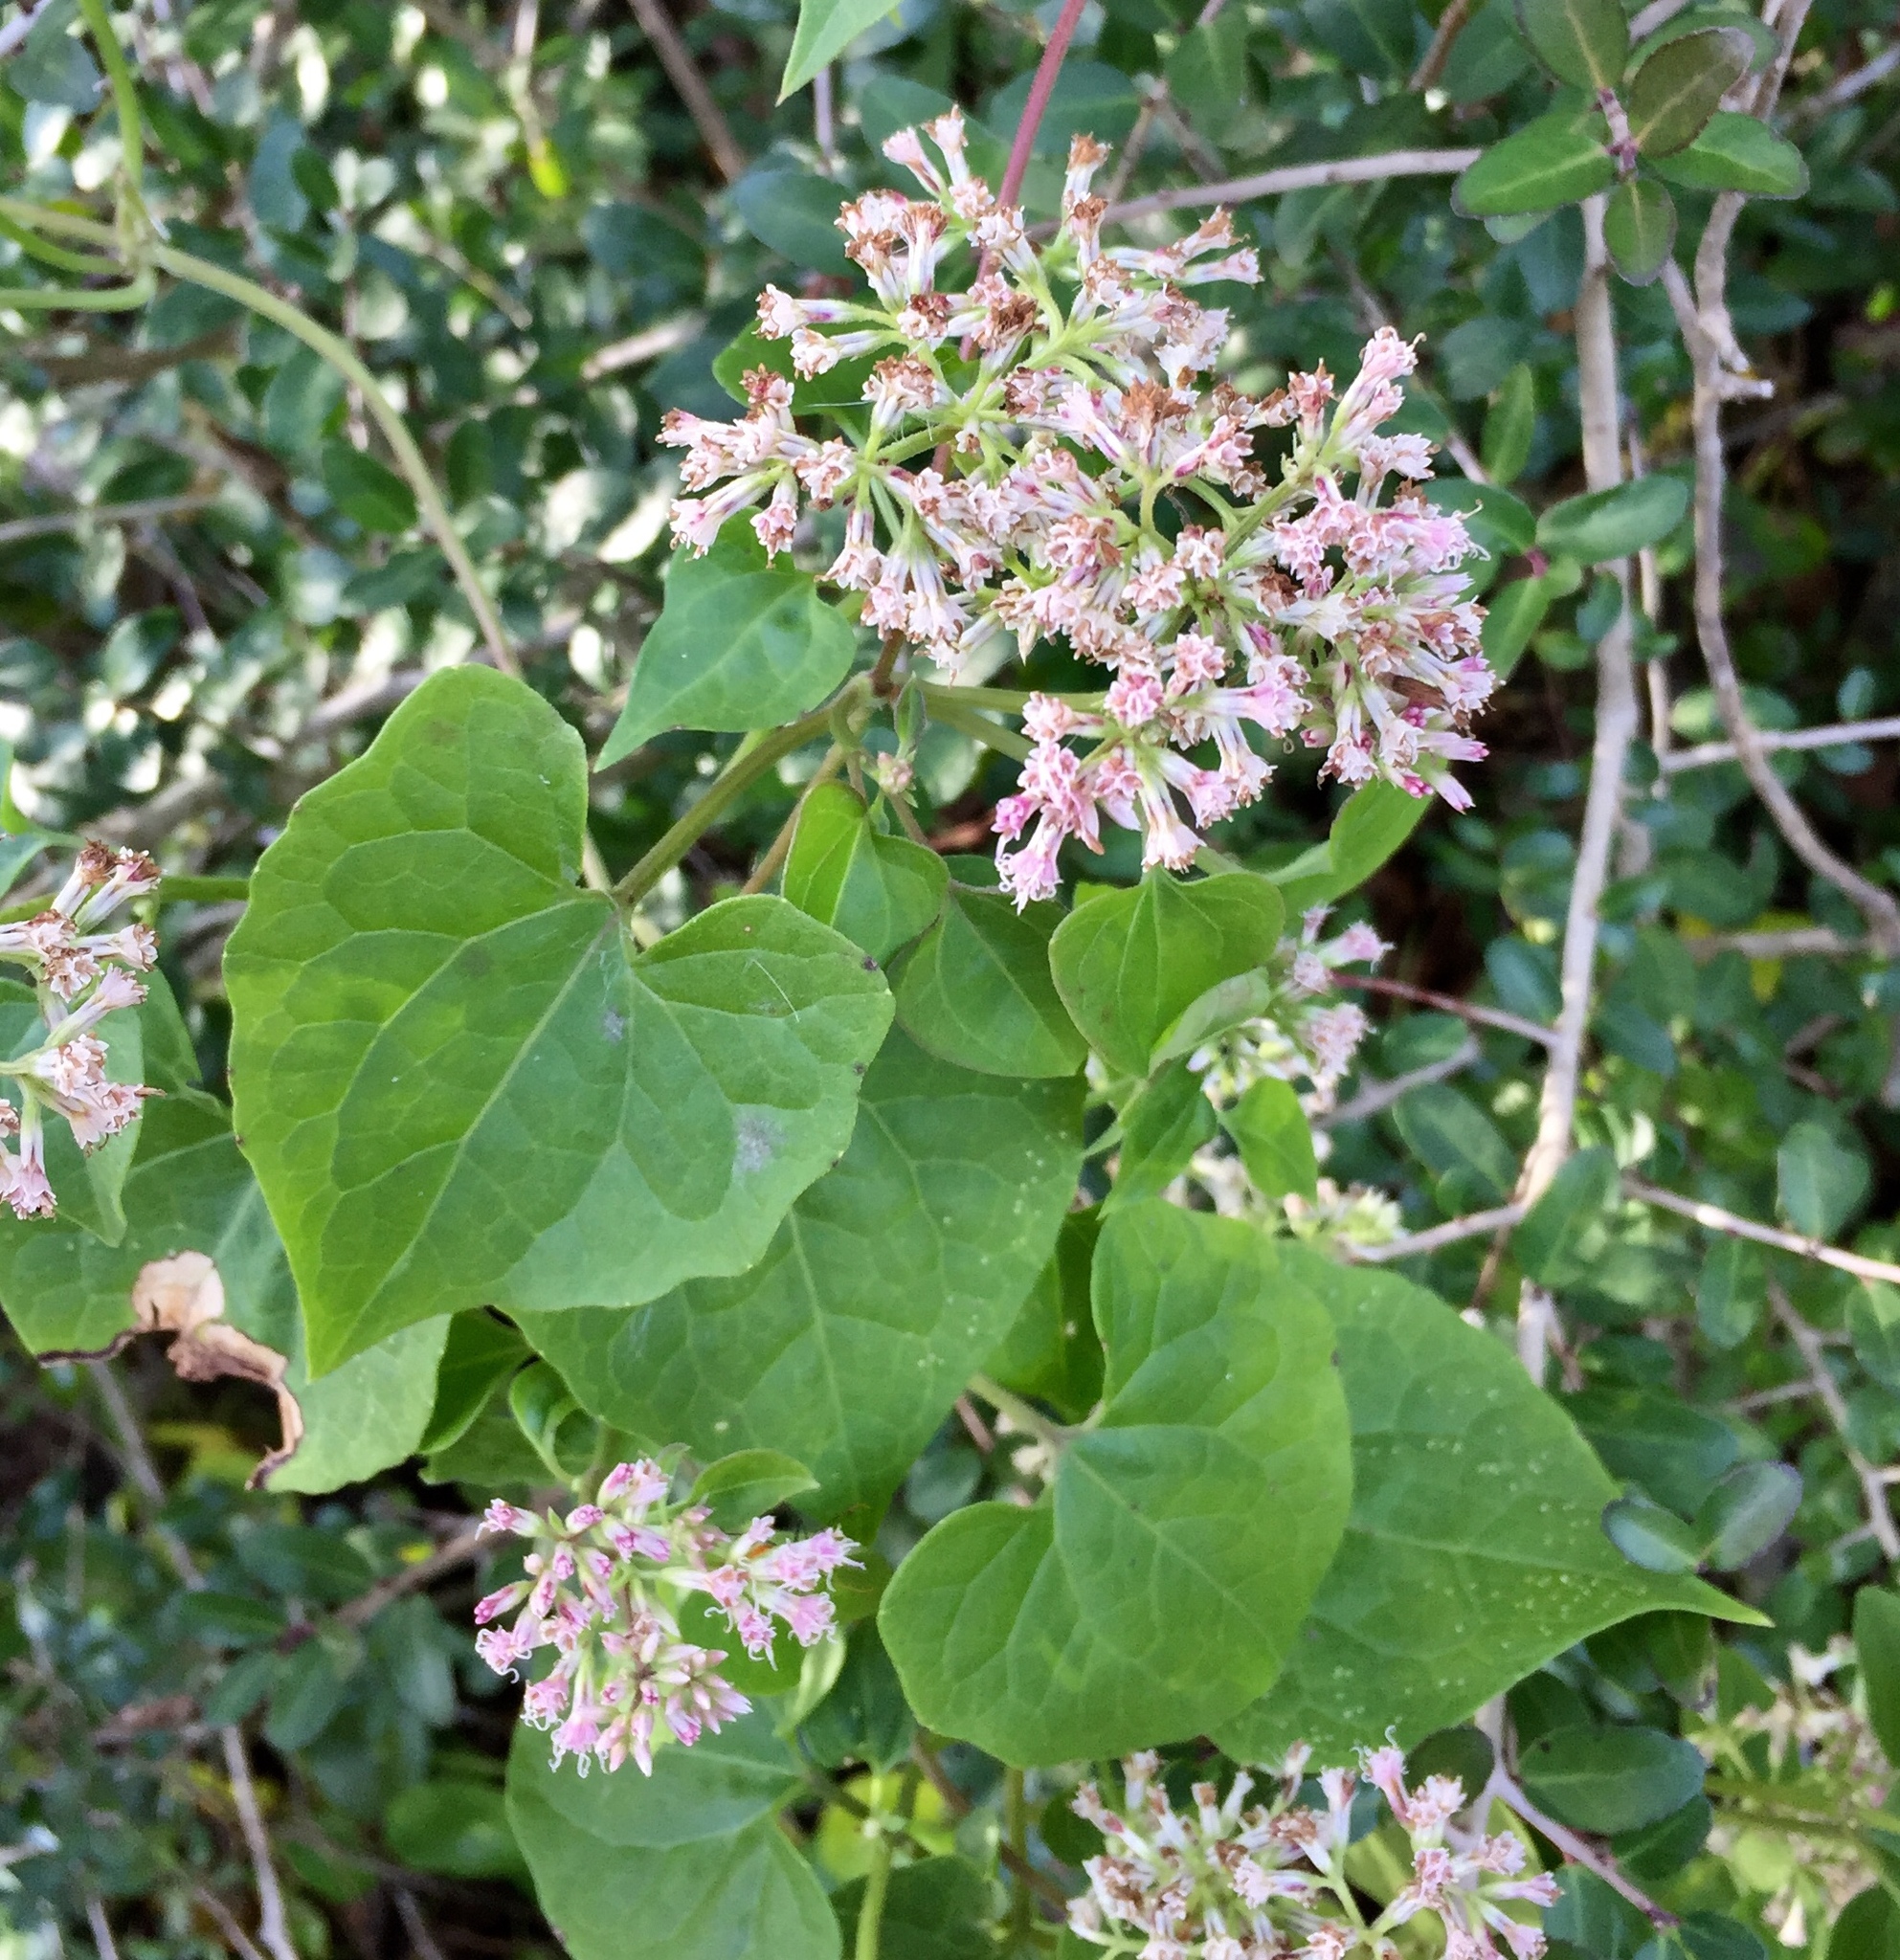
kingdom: Plantae
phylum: Tracheophyta
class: Magnoliopsida
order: Asterales
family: Asteraceae
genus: Mikania
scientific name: Mikania scandens
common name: Climbing hempvine
